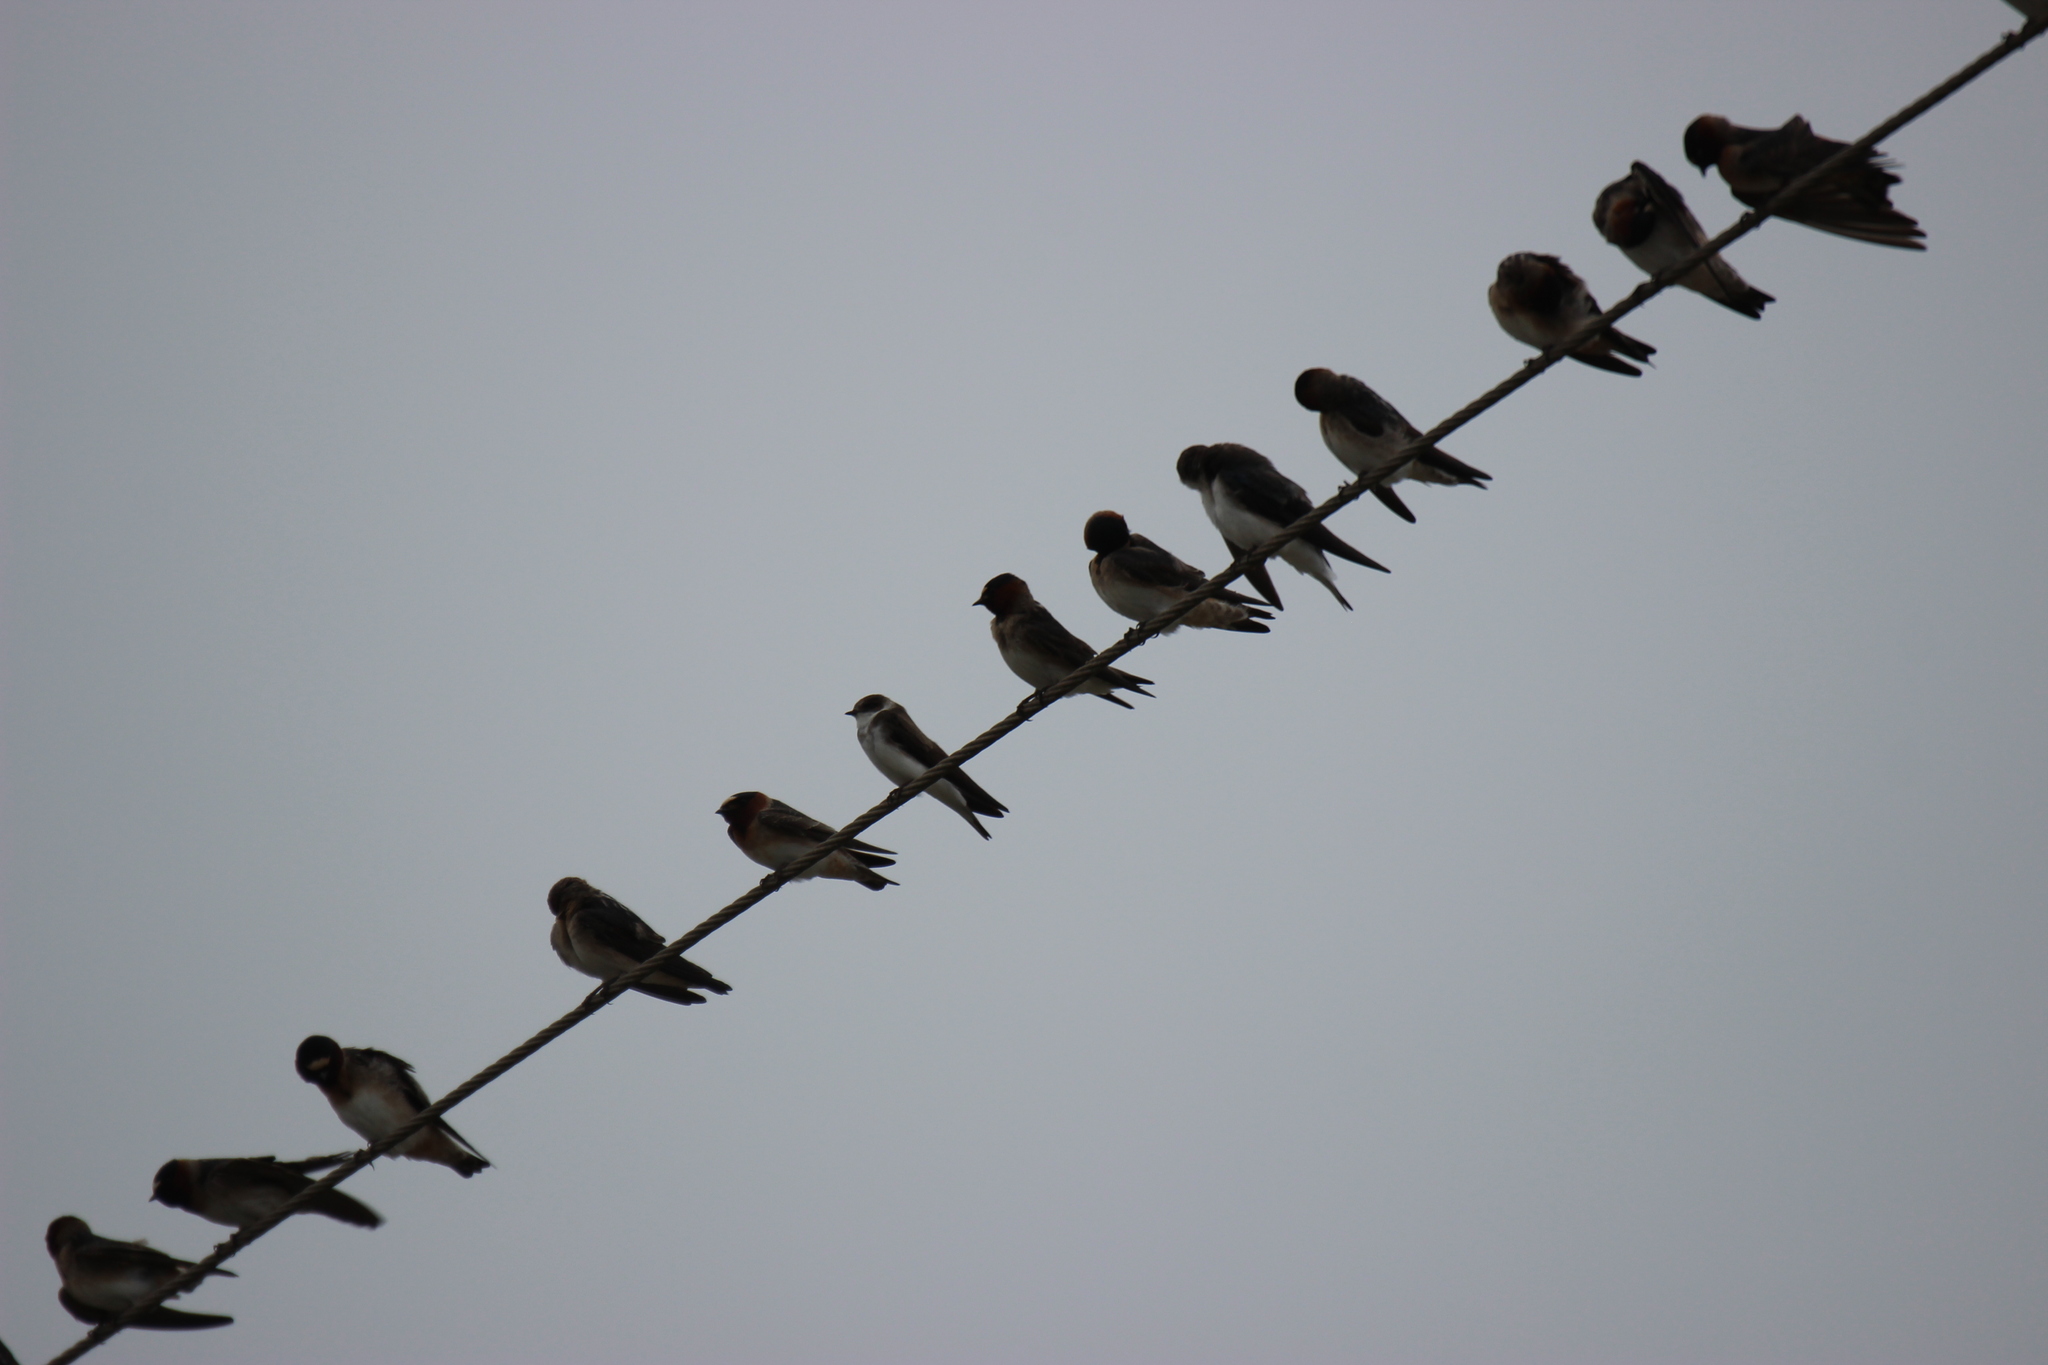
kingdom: Animalia
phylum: Chordata
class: Aves
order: Passeriformes
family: Hirundinidae
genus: Riparia
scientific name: Riparia riparia
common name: Sand martin
